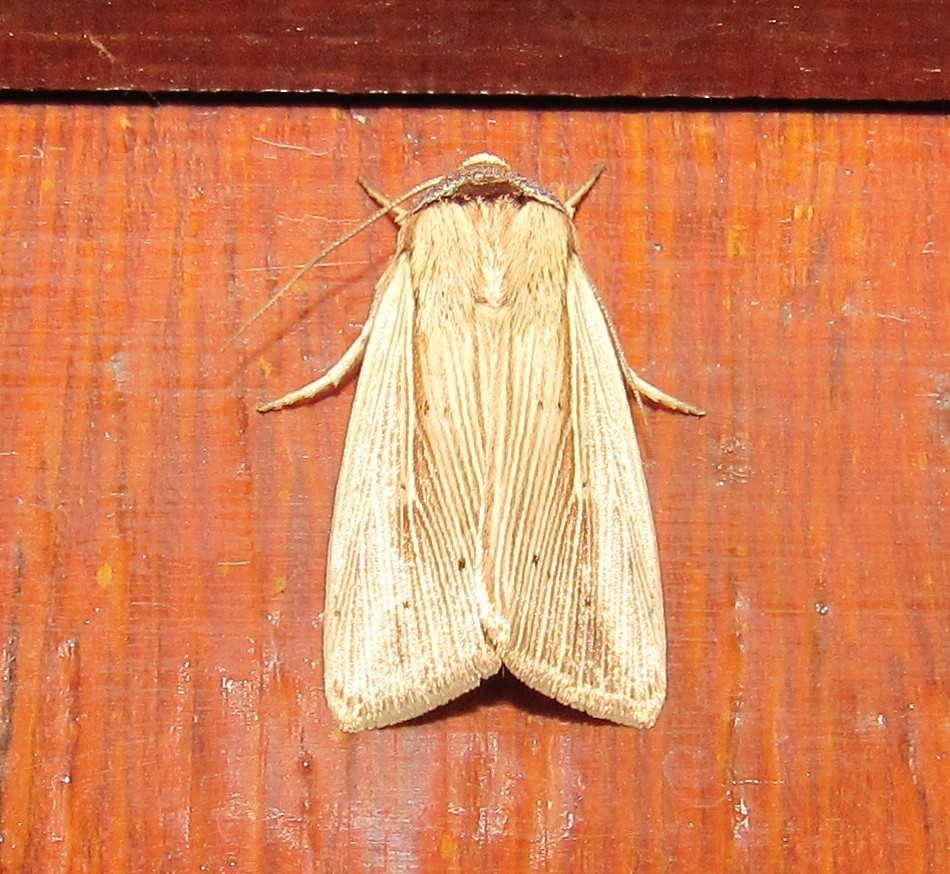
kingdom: Animalia
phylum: Arthropoda
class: Insecta
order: Lepidoptera
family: Noctuidae
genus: Leucania
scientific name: Leucania humidicola
